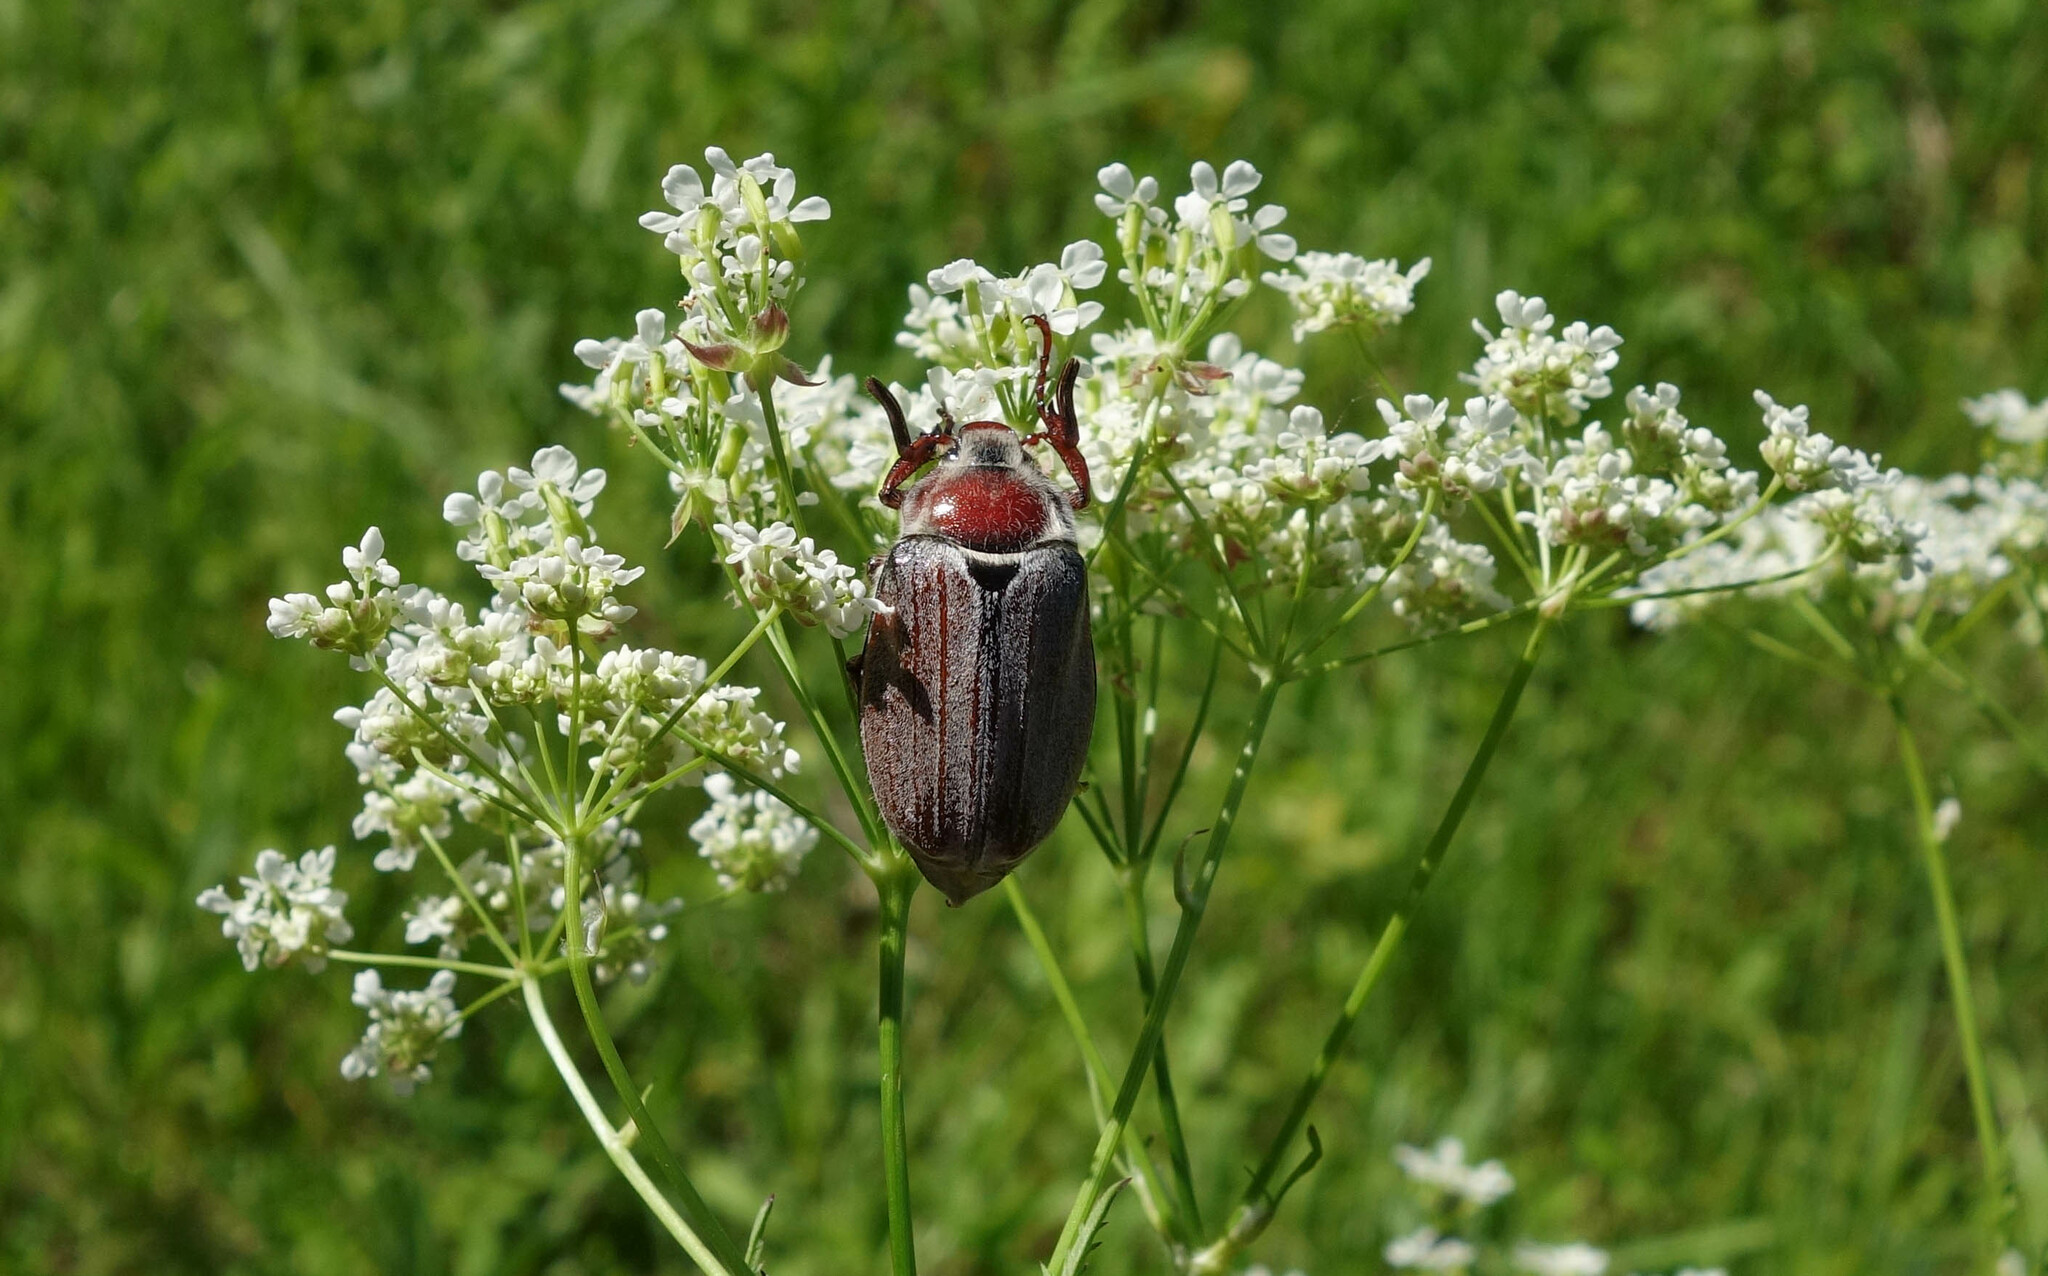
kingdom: Animalia
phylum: Arthropoda
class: Insecta
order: Coleoptera
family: Scarabaeidae
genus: Melolontha
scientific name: Melolontha hippocastani
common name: Chestnut cockchafer
